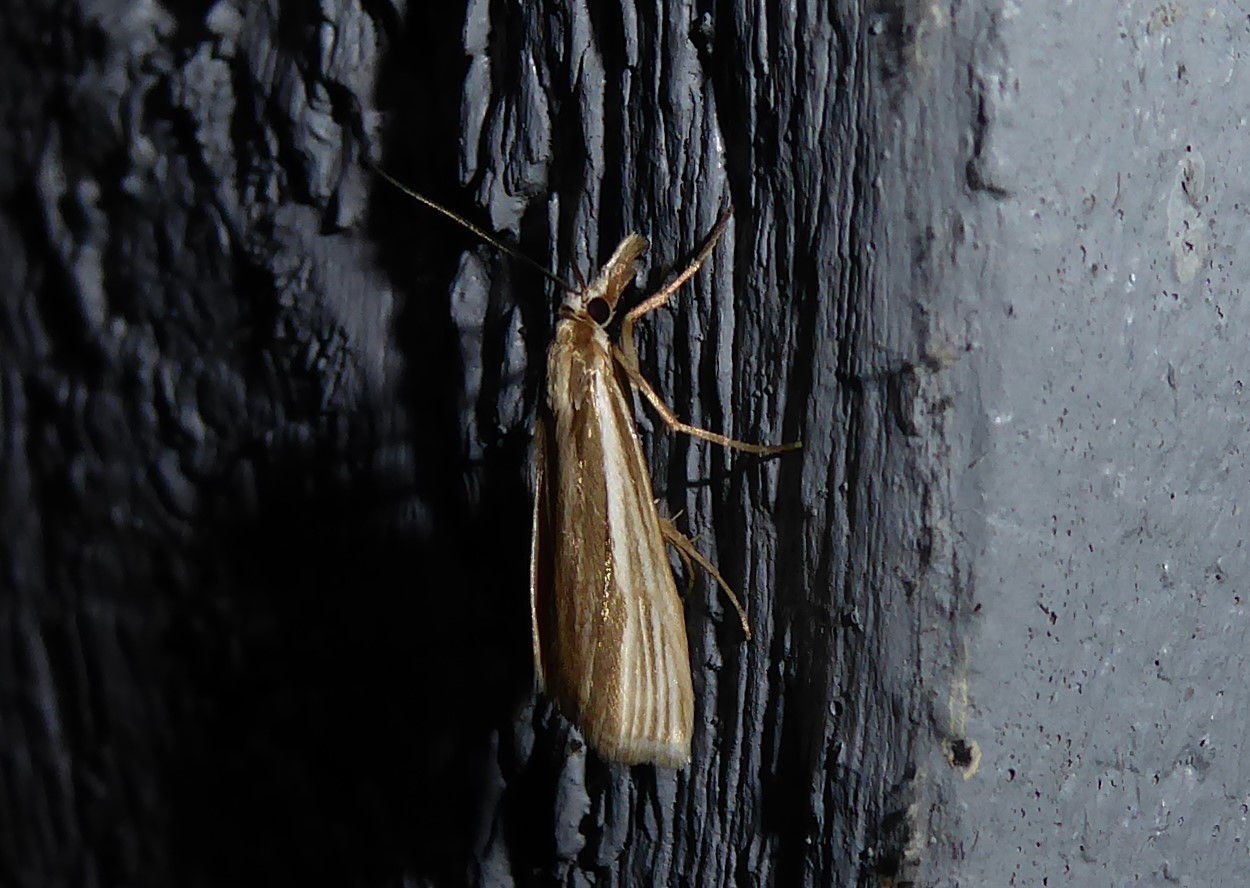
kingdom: Animalia
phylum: Arthropoda
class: Insecta
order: Lepidoptera
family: Crambidae
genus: Orocrambus
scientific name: Orocrambus ramosellus
